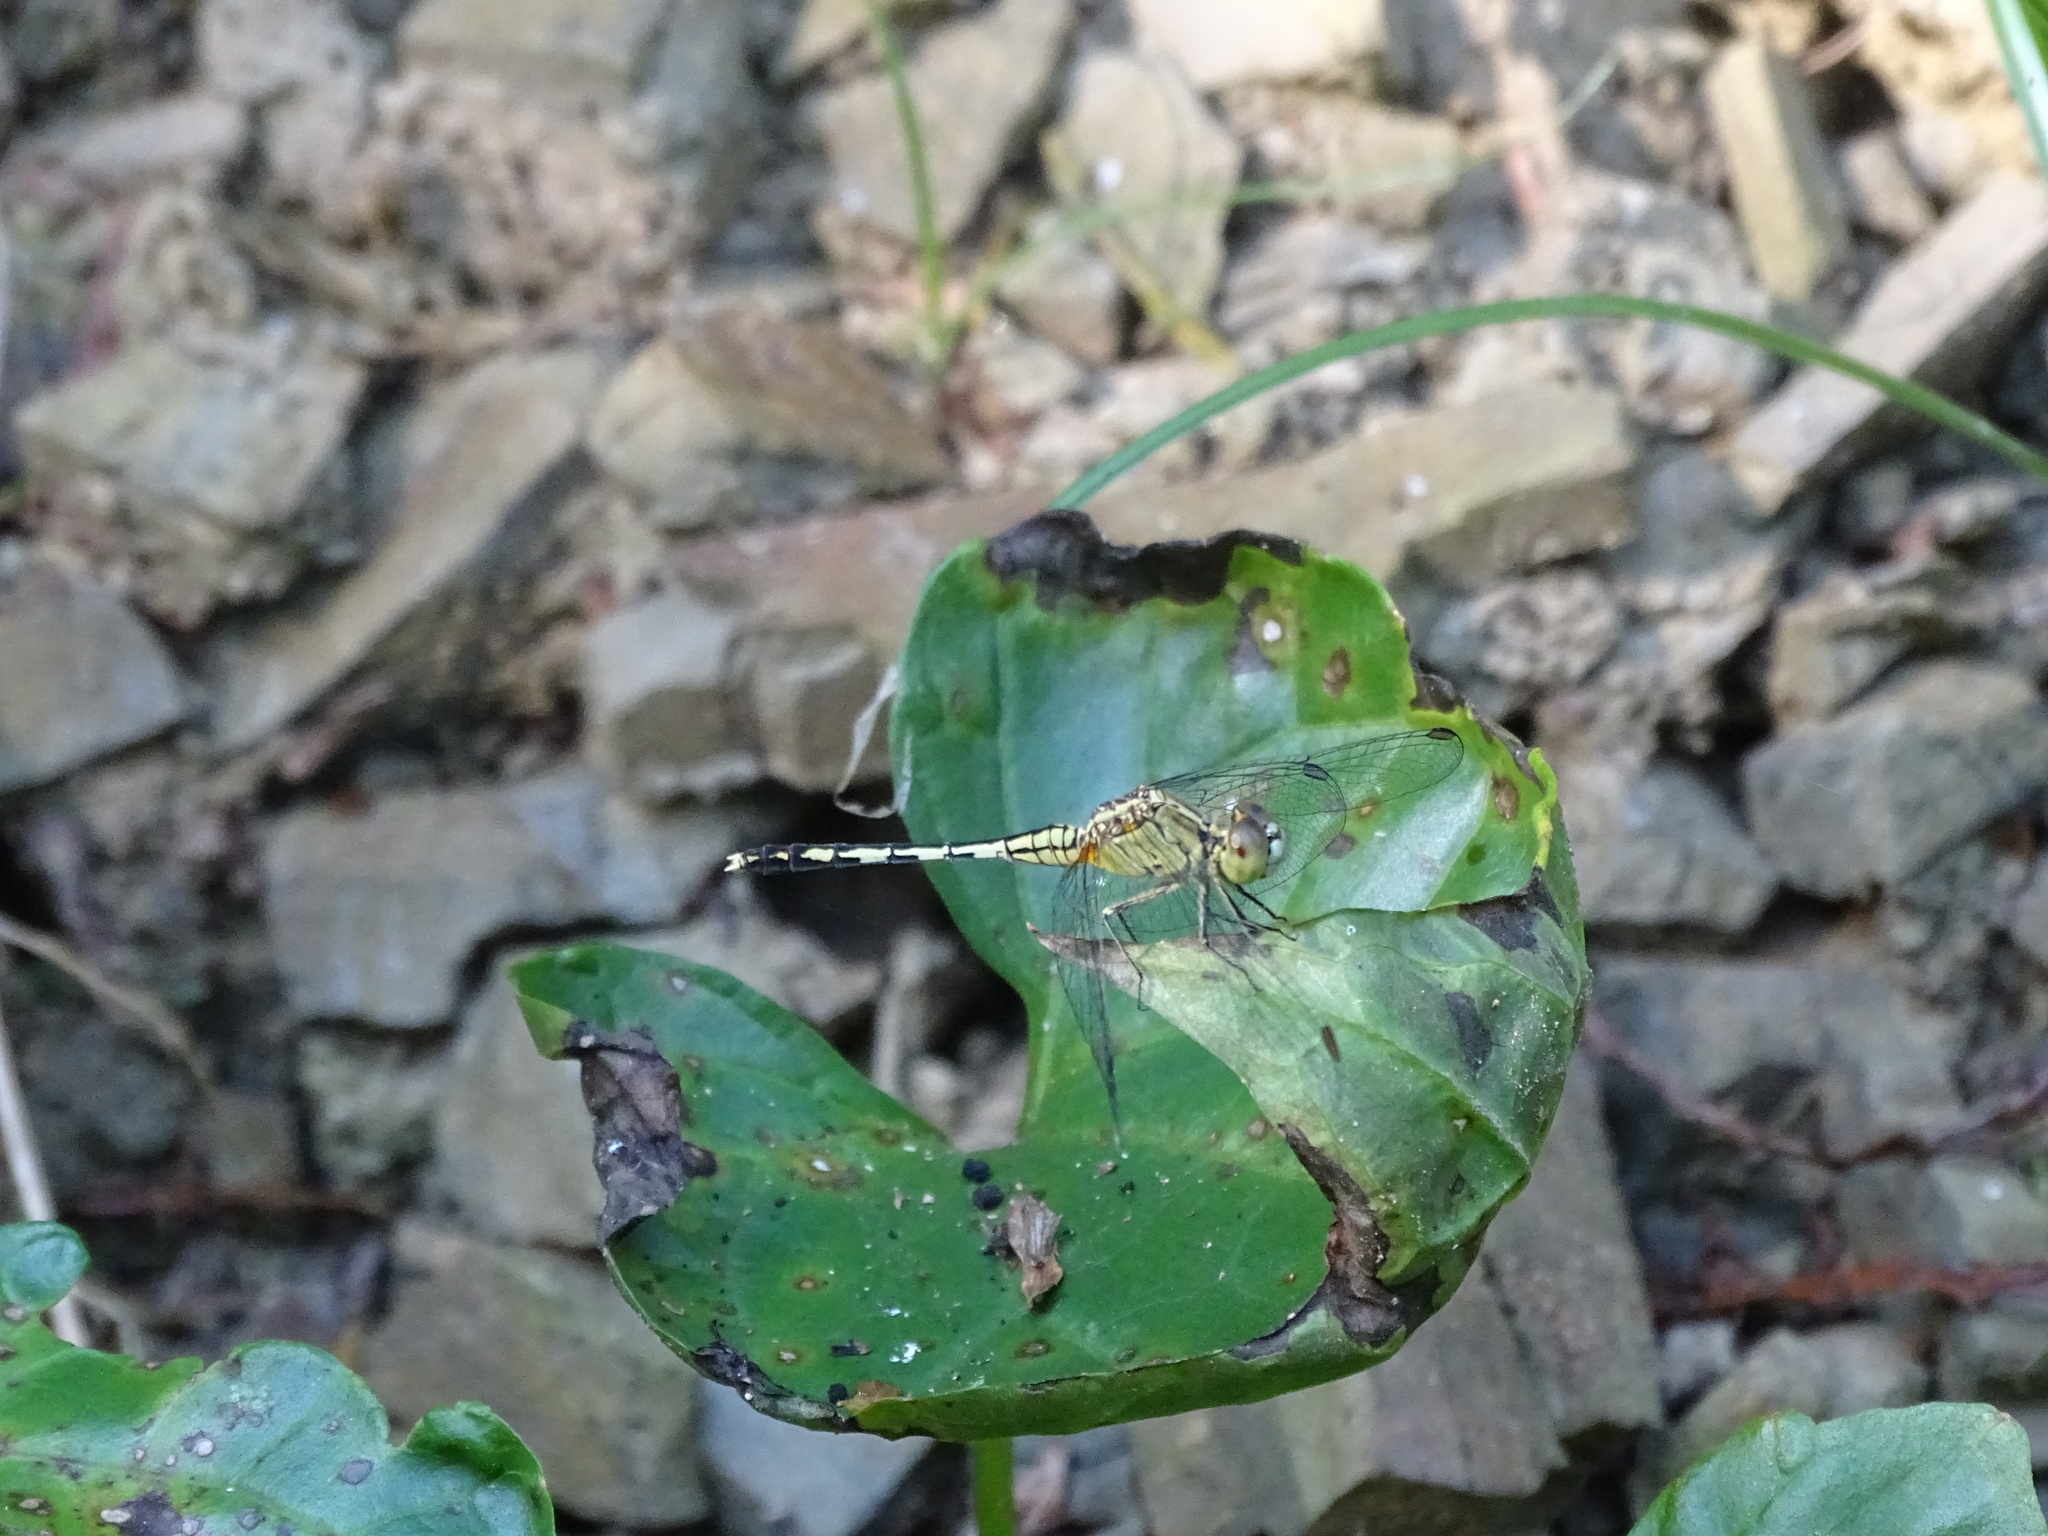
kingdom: Animalia
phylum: Arthropoda
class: Insecta
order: Odonata
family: Libellulidae
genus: Diplacodes
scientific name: Diplacodes trivialis
